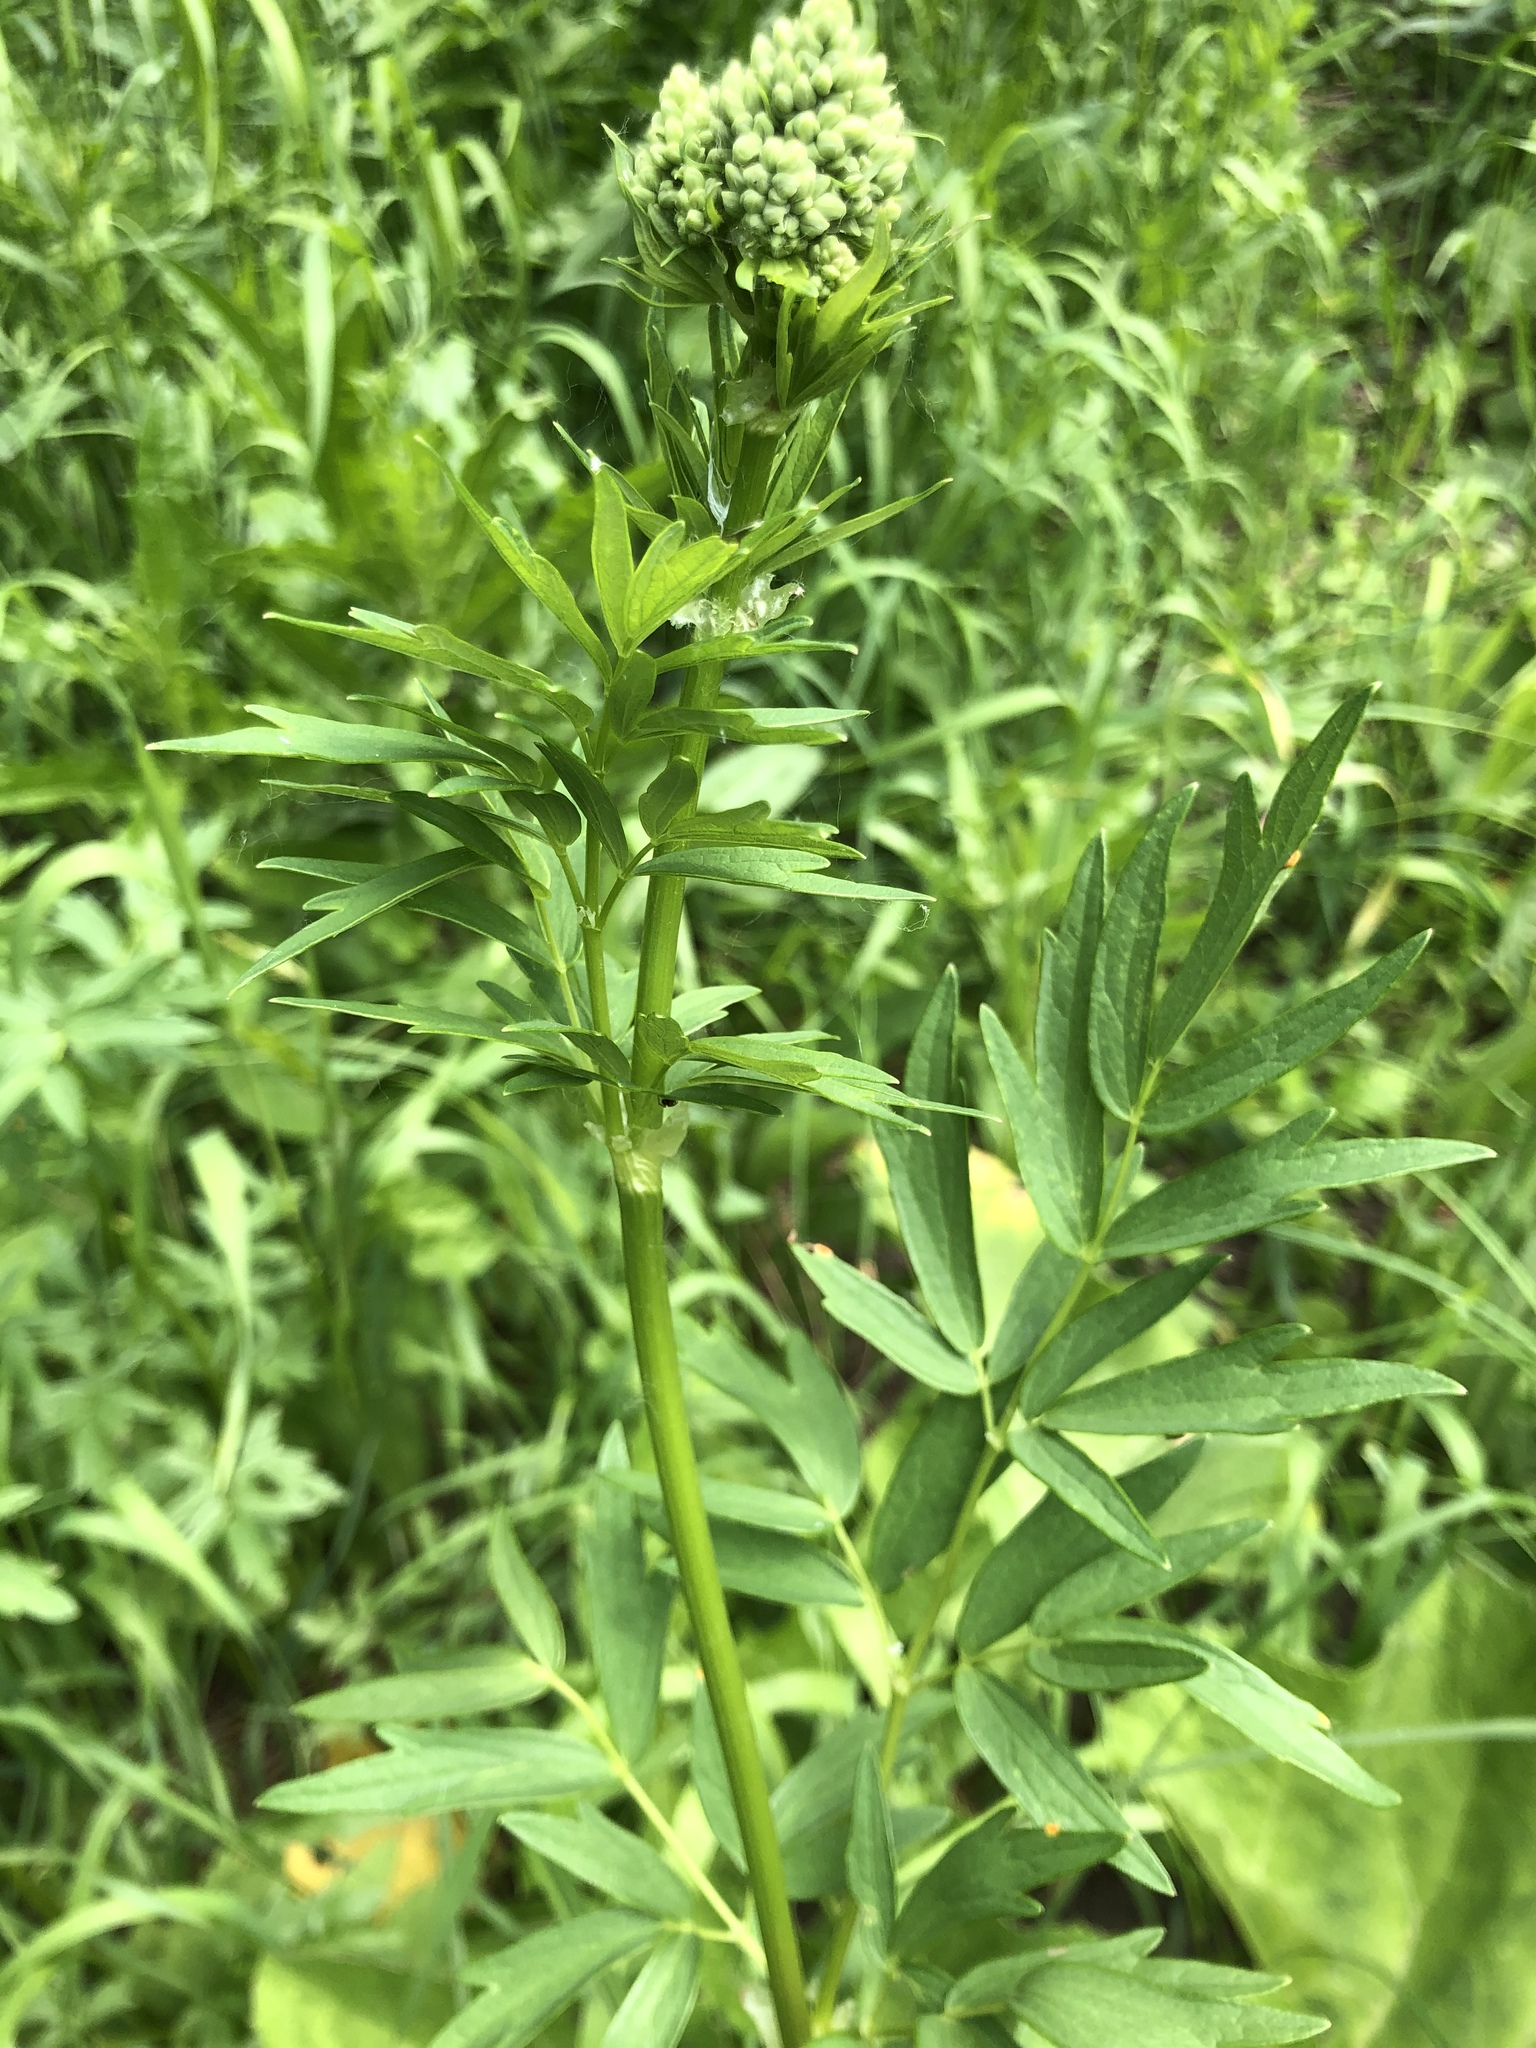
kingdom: Plantae
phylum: Tracheophyta
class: Magnoliopsida
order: Ranunculales
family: Ranunculaceae
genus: Thalictrum
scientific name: Thalictrum flavum
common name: Common meadow-rue
